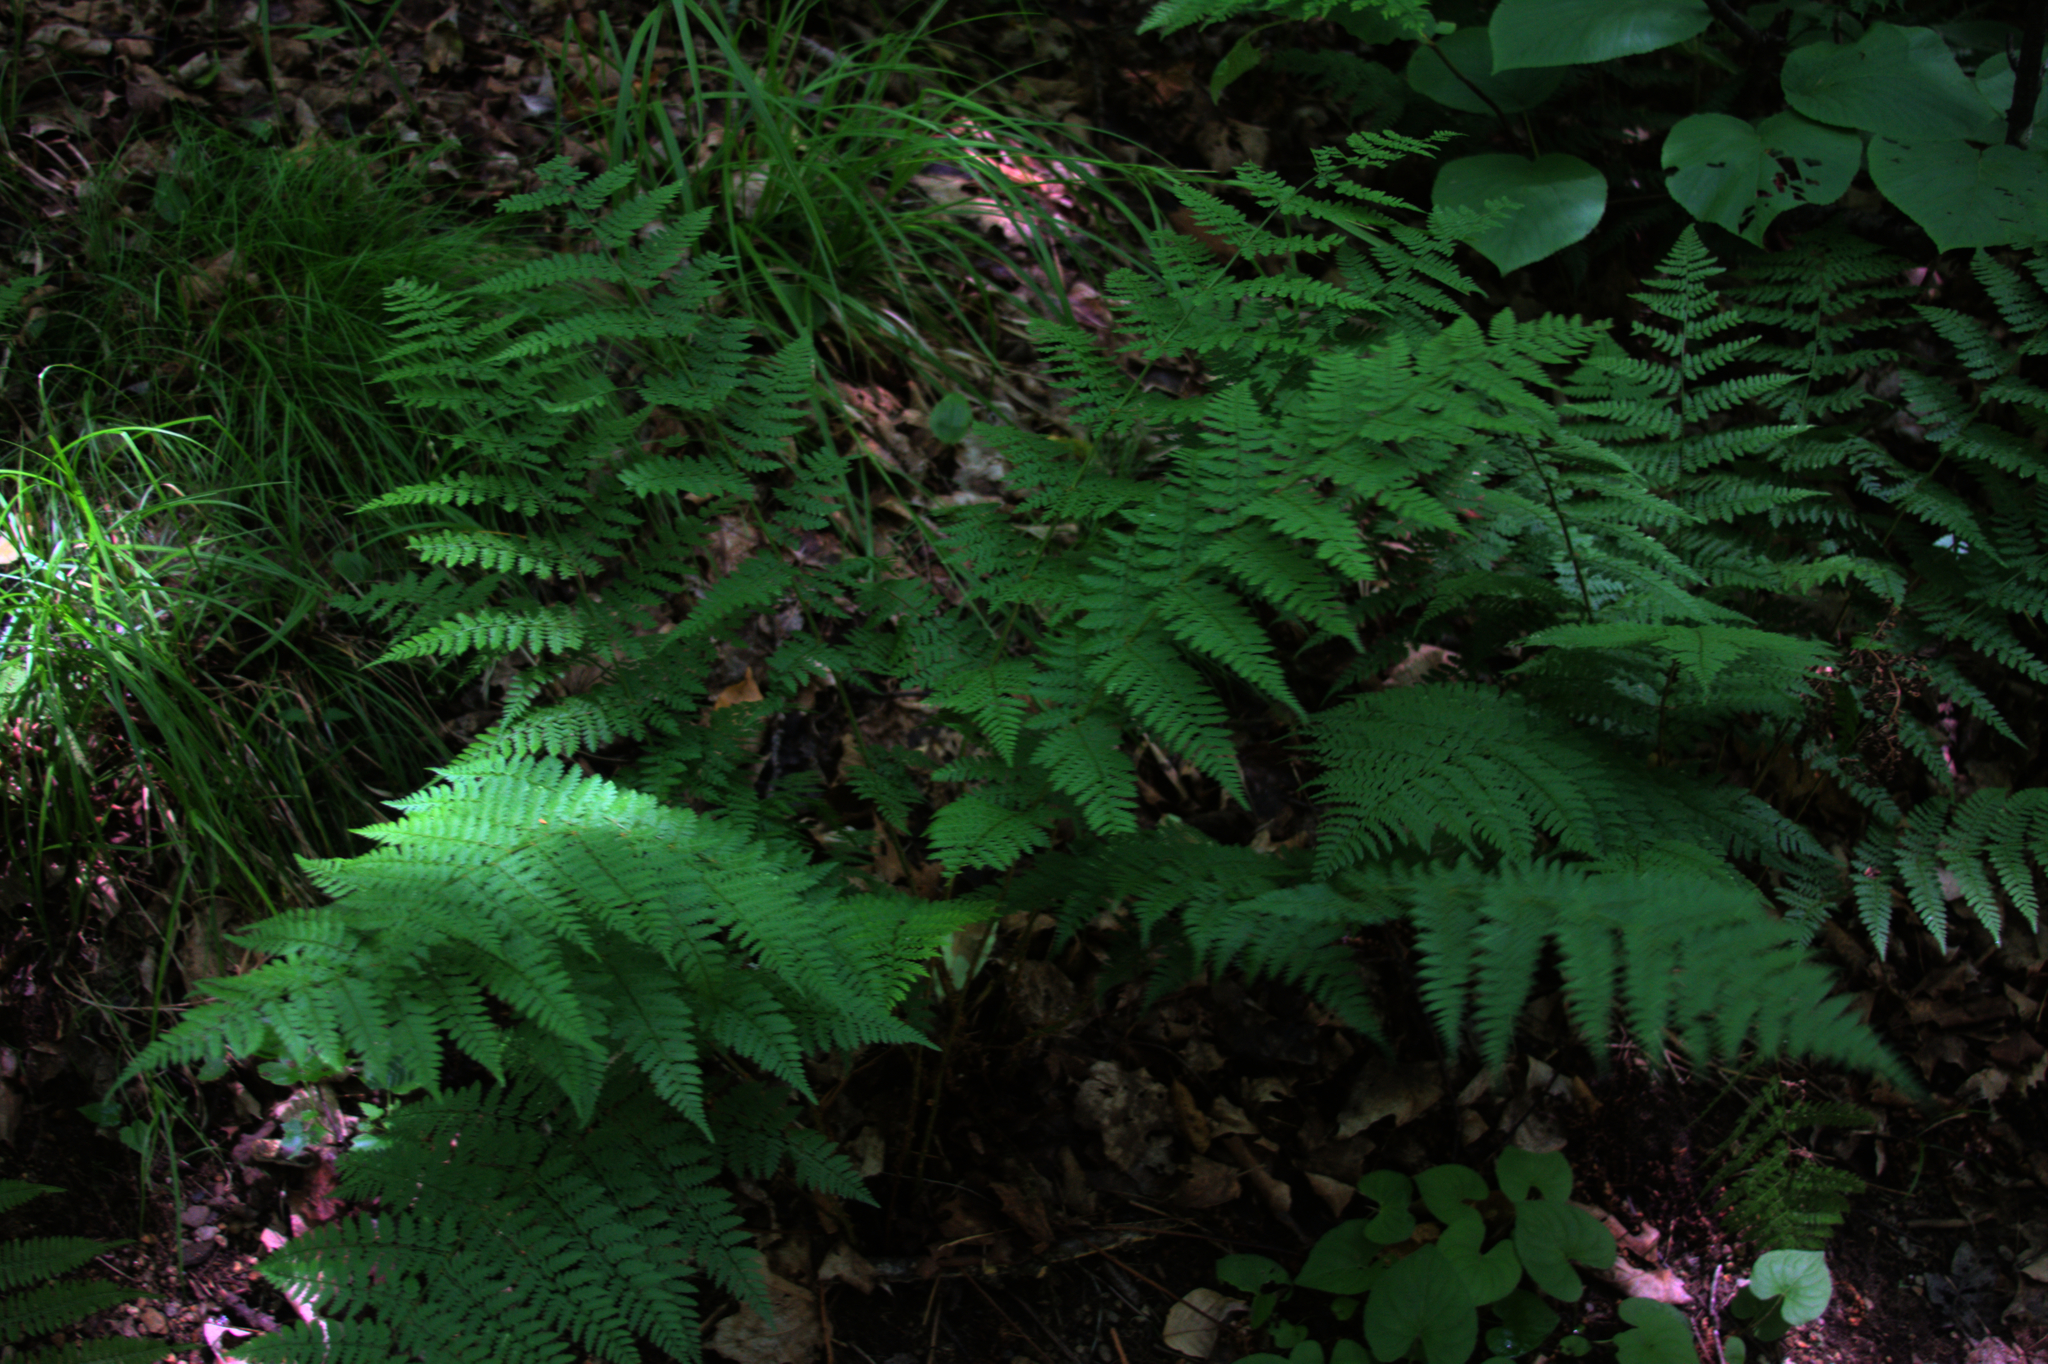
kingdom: Plantae
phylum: Tracheophyta
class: Polypodiopsida
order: Polypodiales
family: Dryopteridaceae
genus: Dryopteris
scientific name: Dryopteris intermedia
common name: Evergreen wood fern
